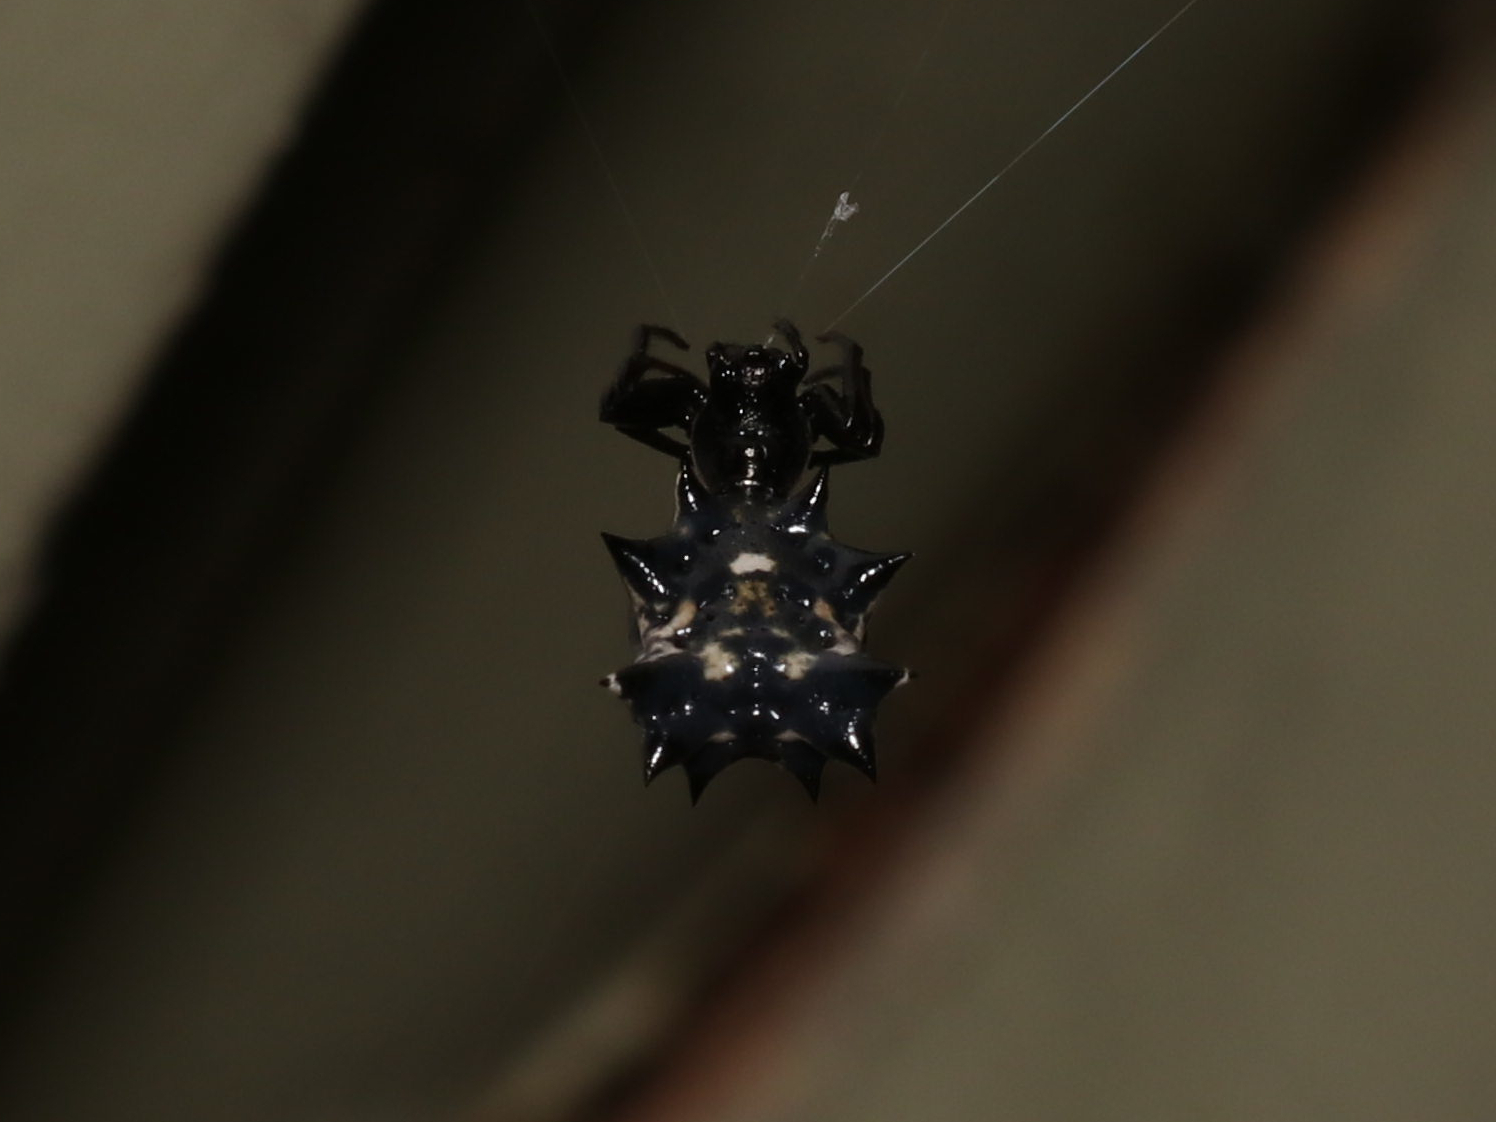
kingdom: Animalia
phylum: Arthropoda
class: Arachnida
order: Araneae
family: Araneidae
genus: Micrathena
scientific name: Micrathena gracilis
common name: Orb weavers
